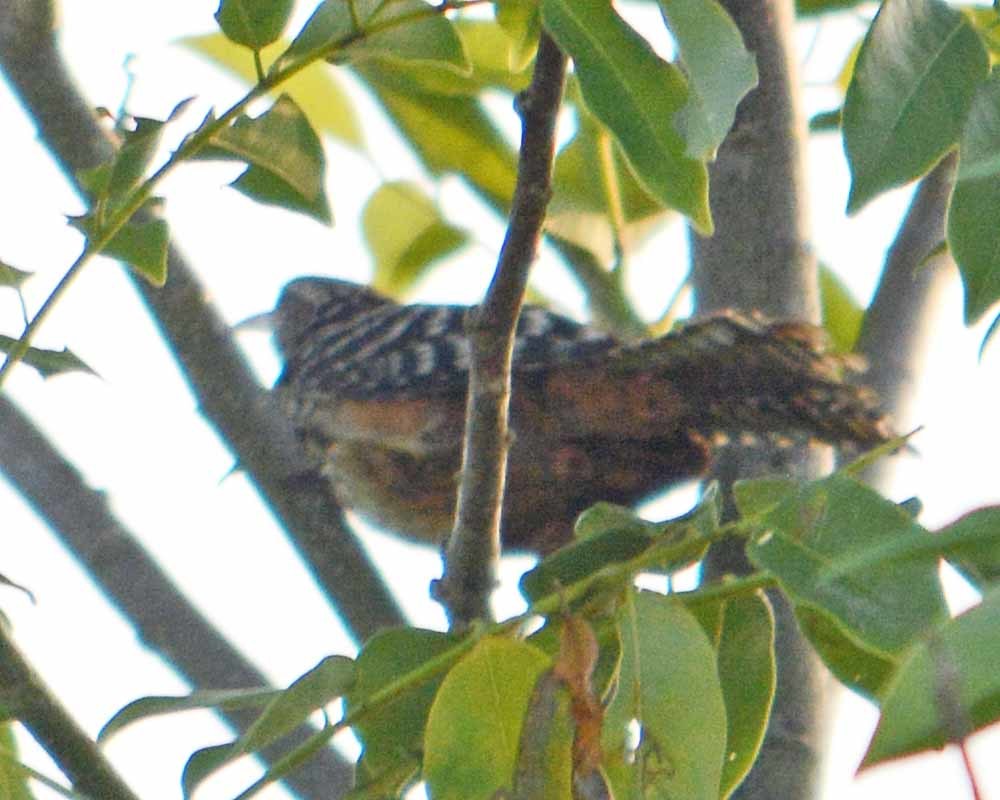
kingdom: Animalia
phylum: Chordata
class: Aves
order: Passeriformes
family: Troglodytidae
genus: Campylorhynchus
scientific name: Campylorhynchus zonatus
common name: Band-backed wren
